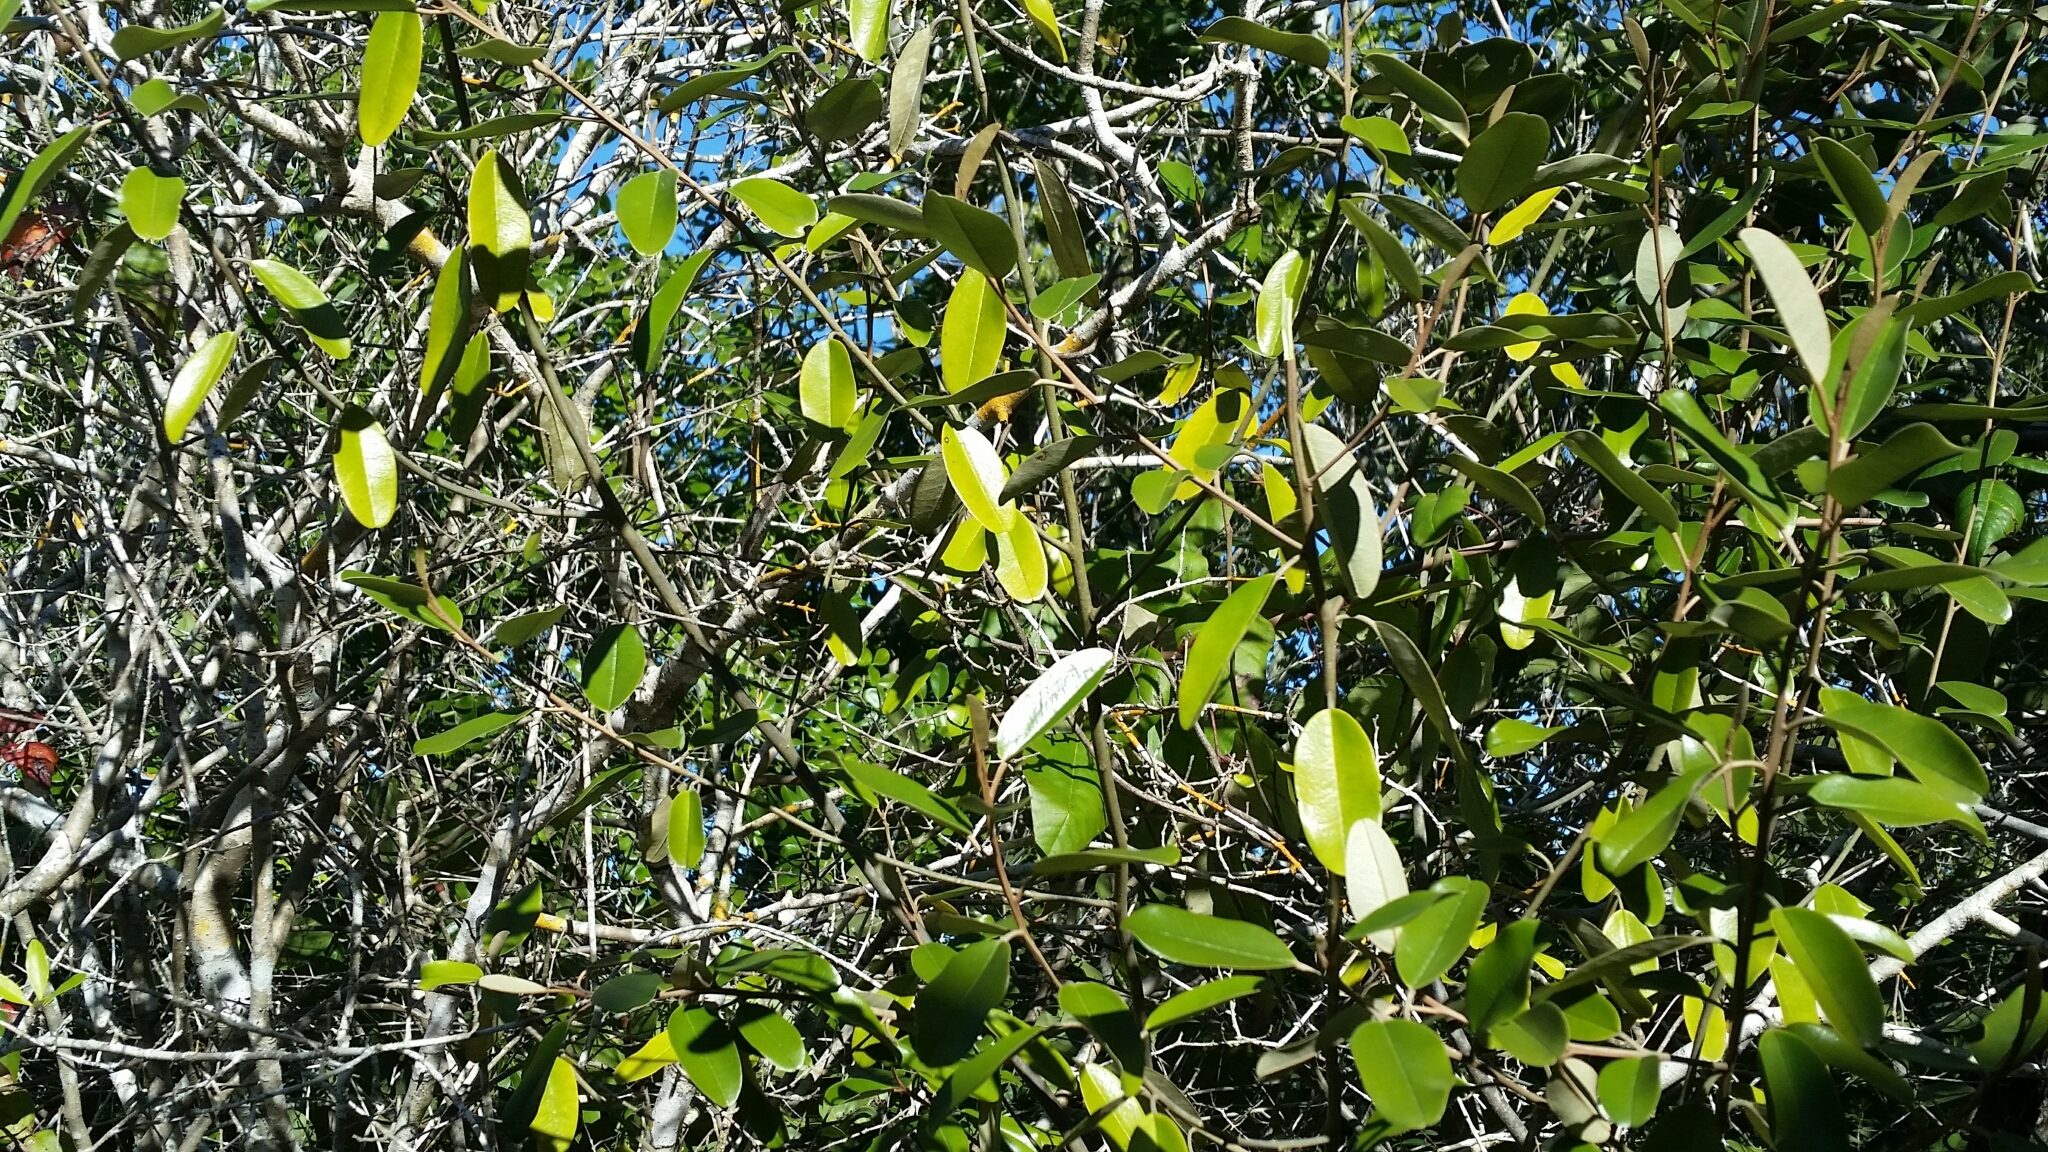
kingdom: Plantae
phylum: Tracheophyta
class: Magnoliopsida
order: Brassicales
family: Capparaceae
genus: Quadrella
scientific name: Quadrella cynophallophora
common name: Black willow
